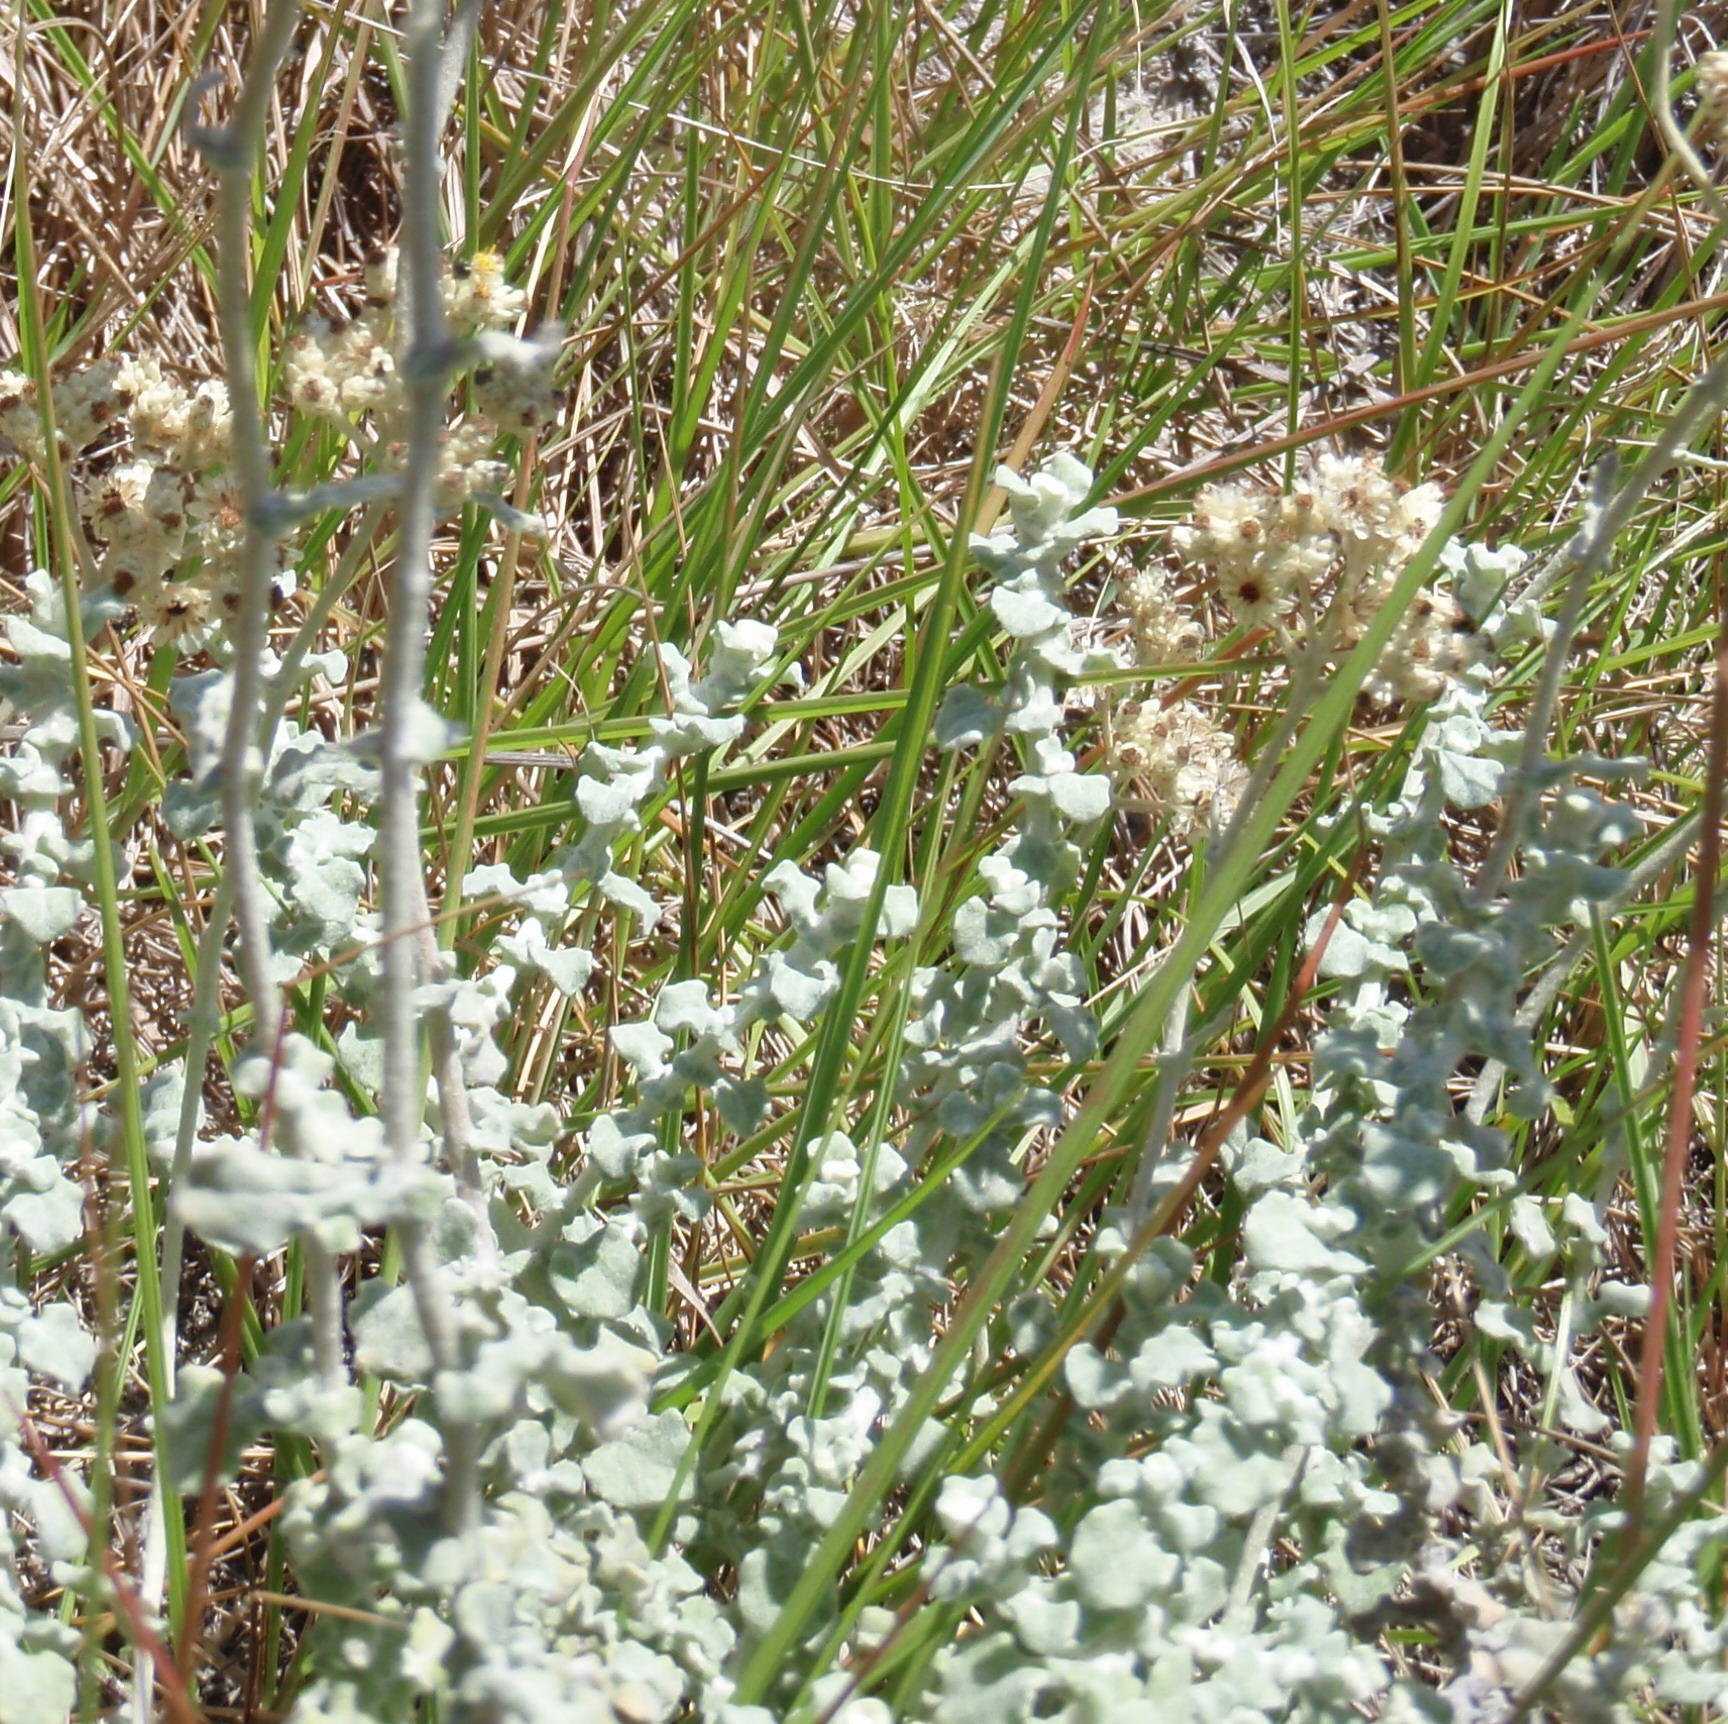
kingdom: Plantae
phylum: Tracheophyta
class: Magnoliopsida
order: Asterales
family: Asteraceae
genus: Helichrysum
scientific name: Helichrysum patulum
